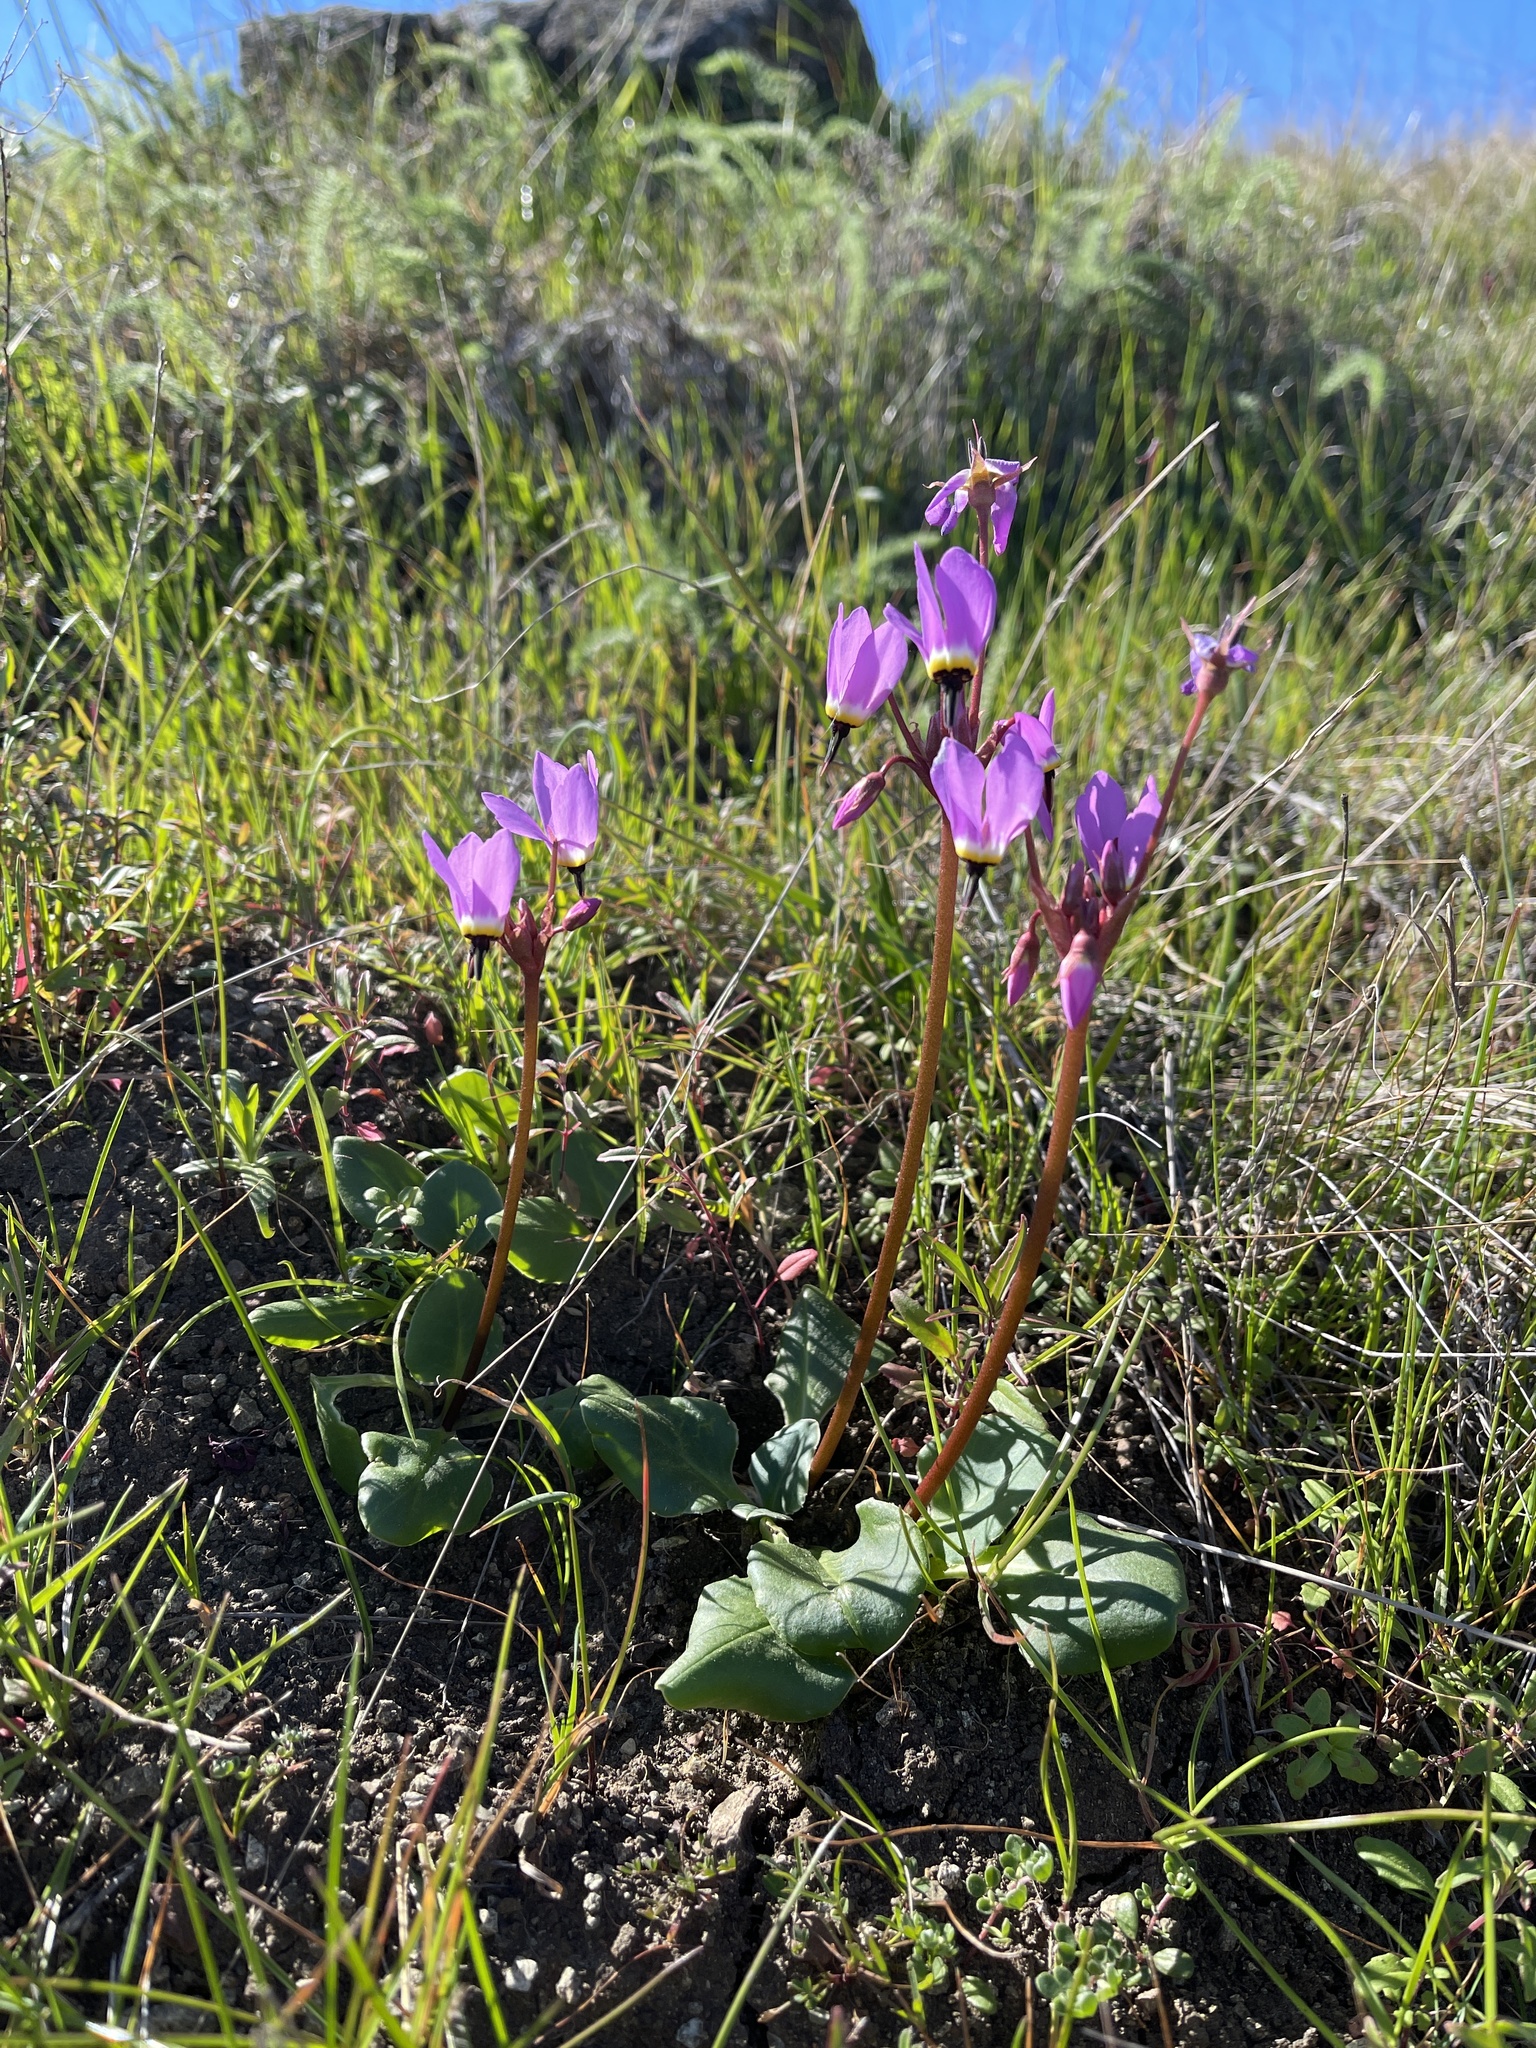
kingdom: Plantae
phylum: Tracheophyta
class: Magnoliopsida
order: Ericales
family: Primulaceae
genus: Dodecatheon
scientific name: Dodecatheon hendersonii
